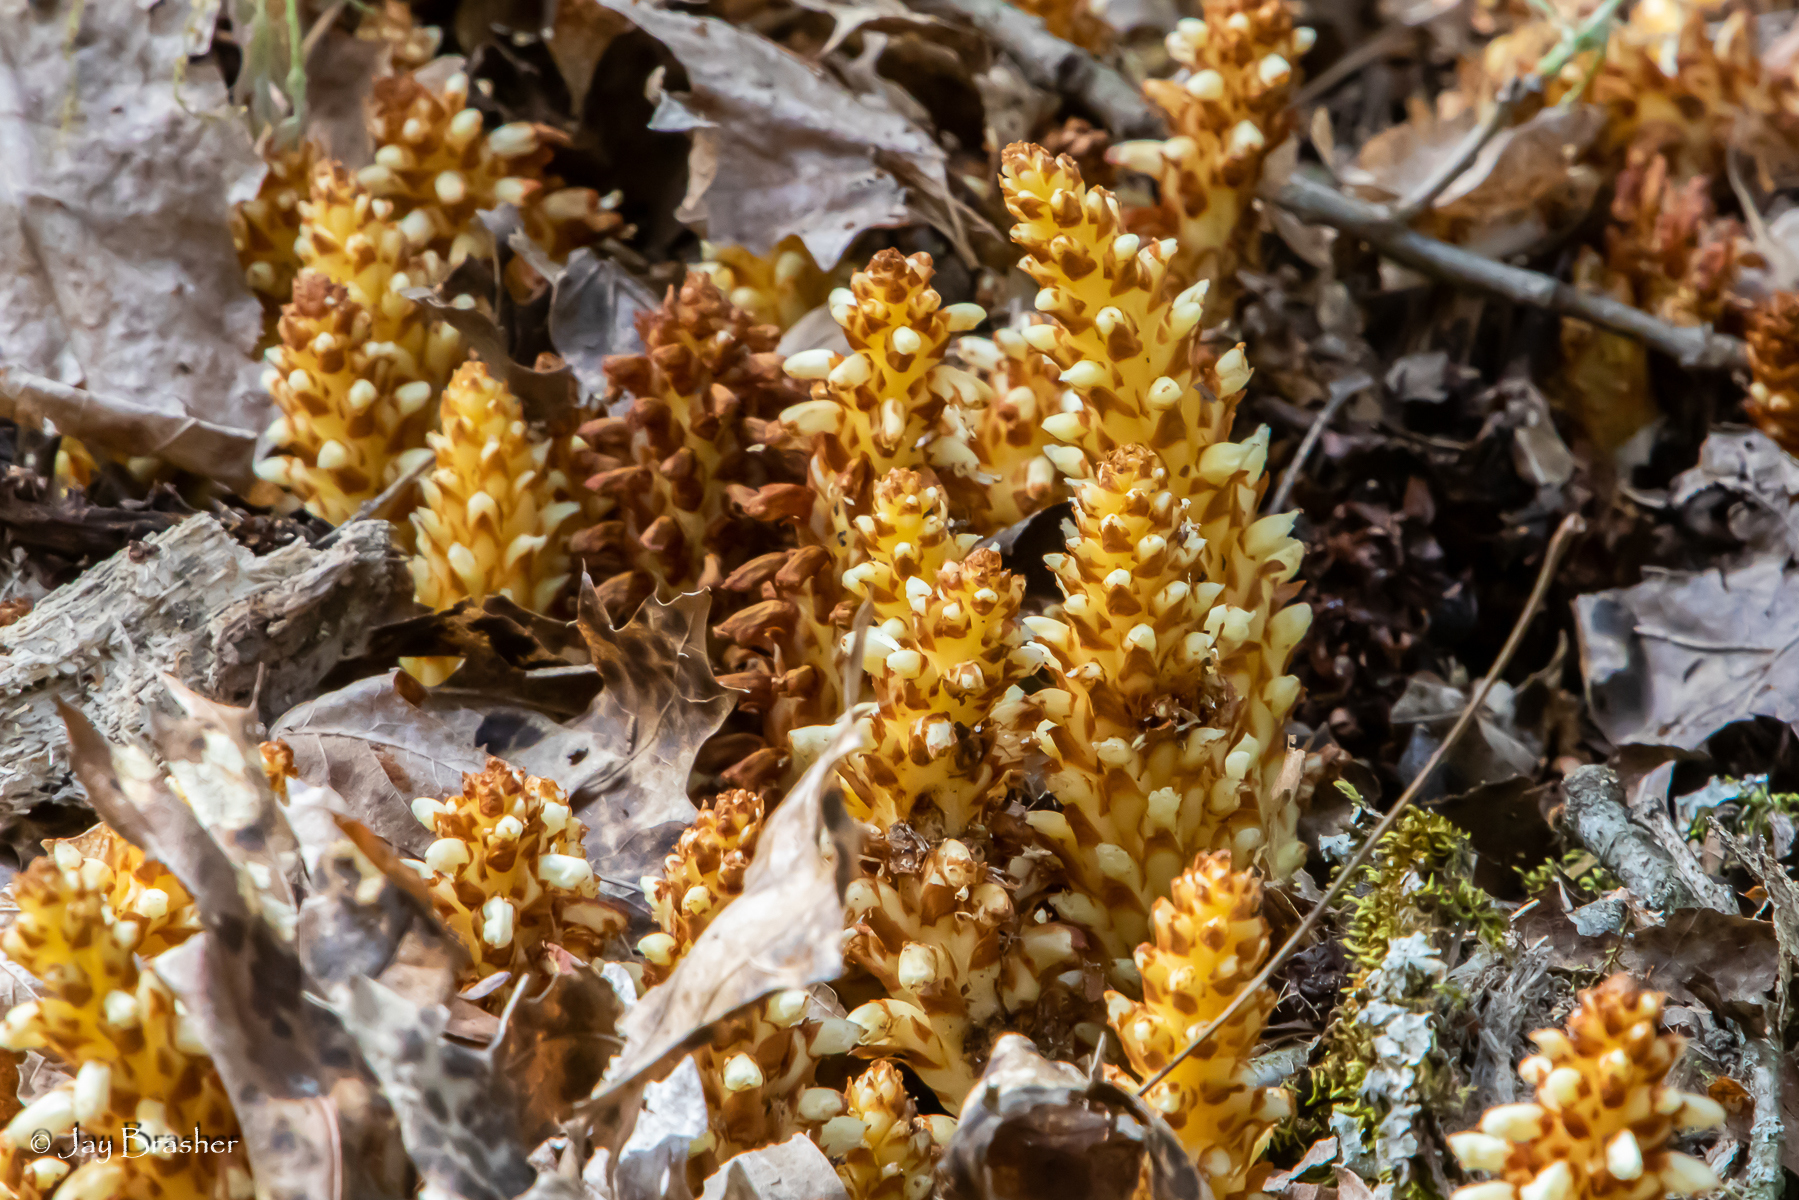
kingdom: Plantae
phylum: Tracheophyta
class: Magnoliopsida
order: Lamiales
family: Orobanchaceae
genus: Conopholis
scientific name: Conopholis americana
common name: American cancer-root
